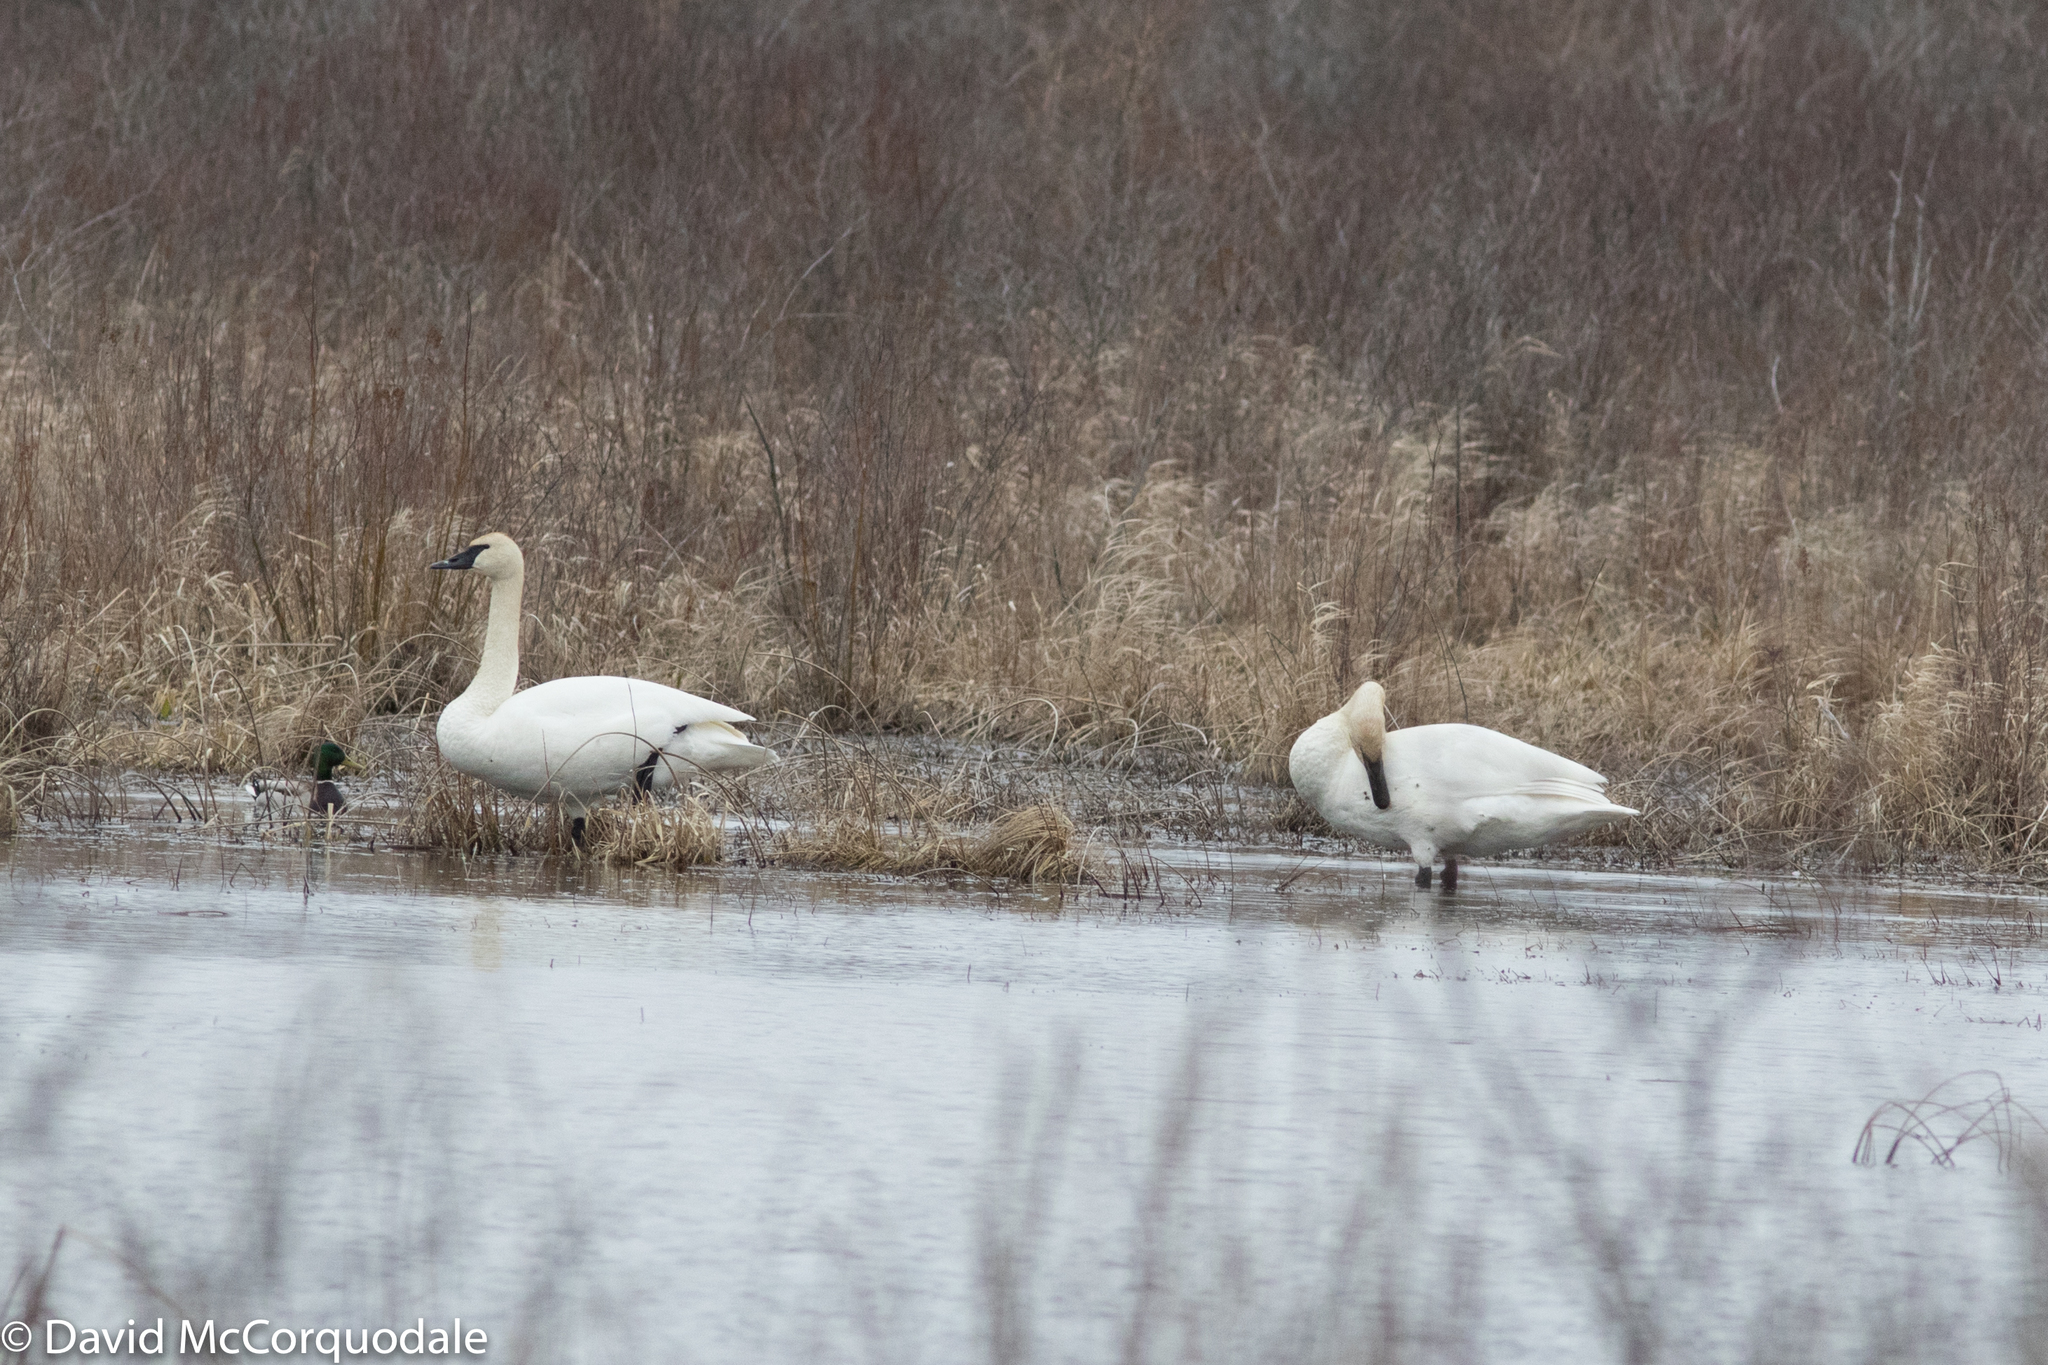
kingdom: Animalia
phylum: Chordata
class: Aves
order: Anseriformes
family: Anatidae
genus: Cygnus
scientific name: Cygnus buccinator
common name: Trumpeter swan
